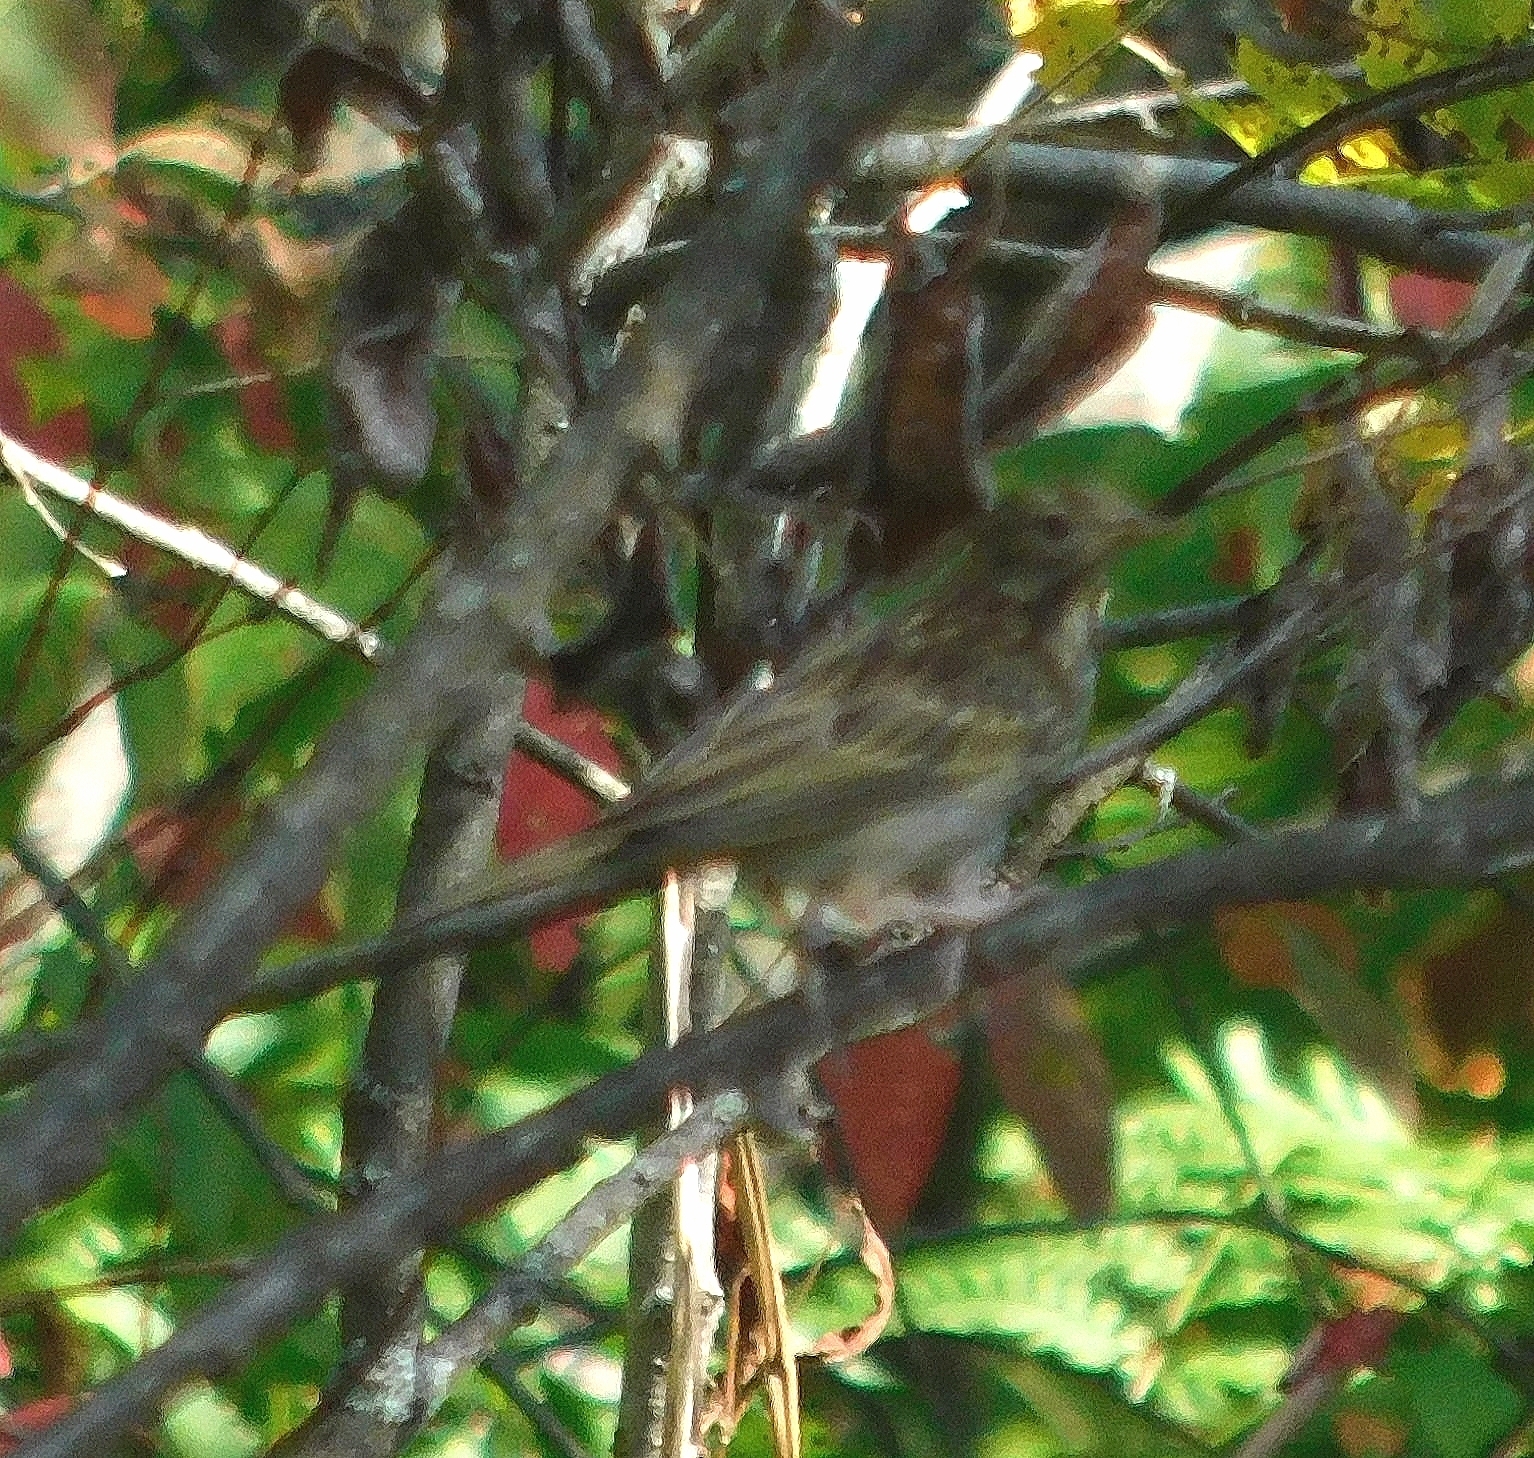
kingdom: Animalia
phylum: Chordata
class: Aves
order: Passeriformes
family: Motacillidae
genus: Anthus
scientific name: Anthus trivialis
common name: Tree pipit
